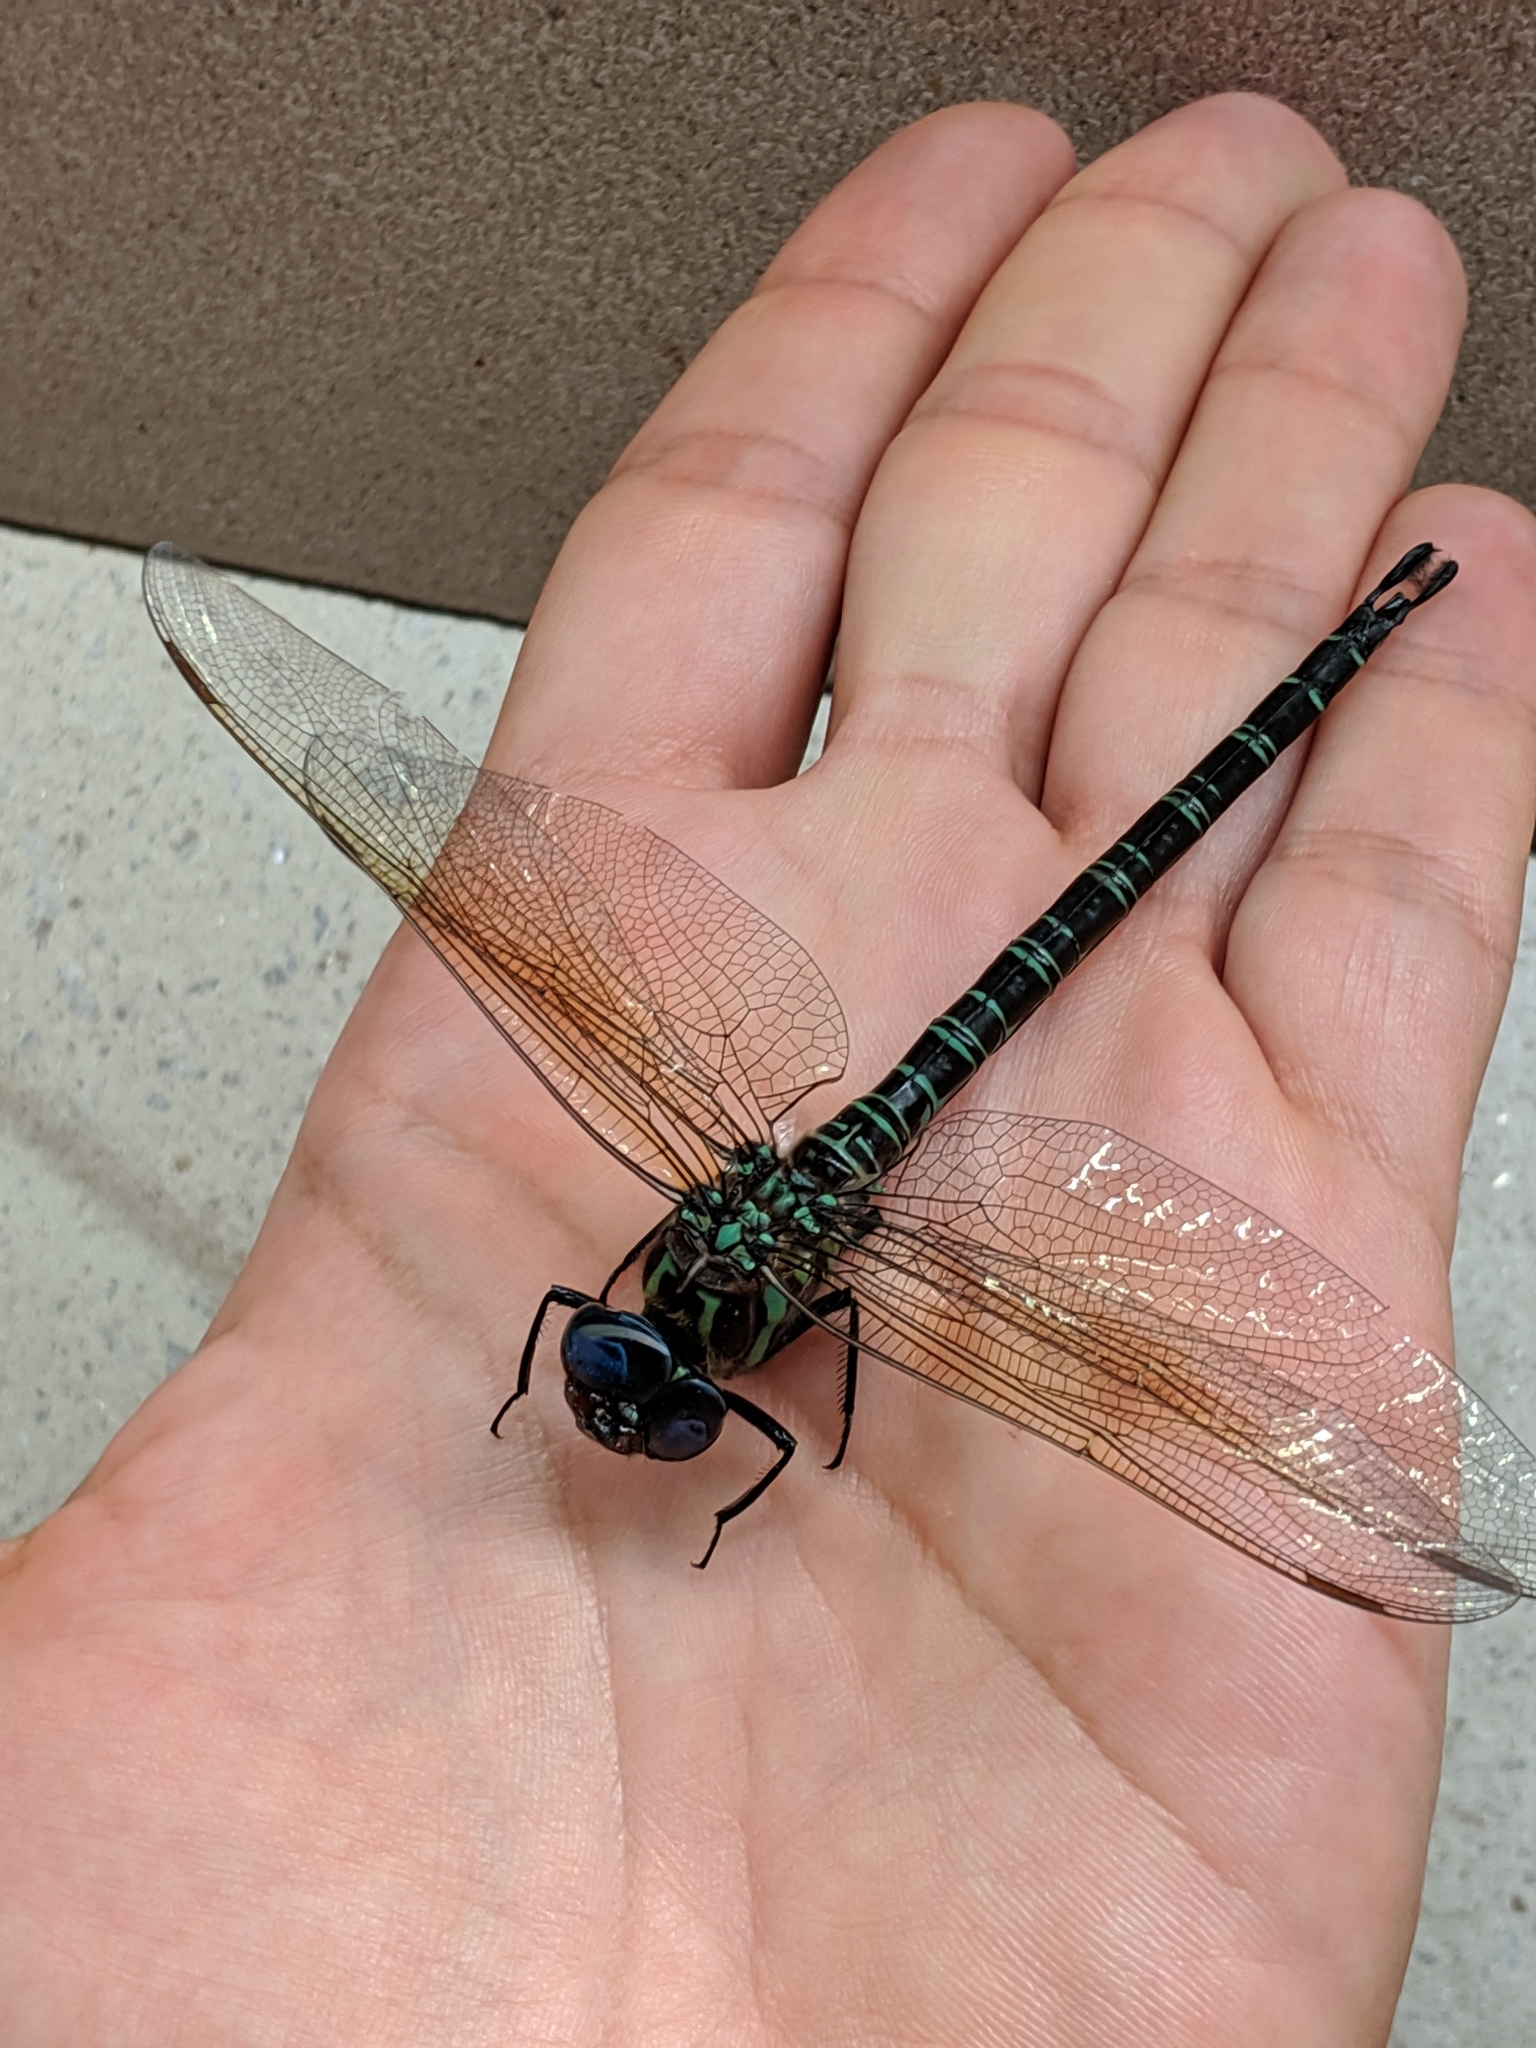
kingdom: Animalia
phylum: Arthropoda
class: Insecta
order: Odonata
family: Aeshnidae
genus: Epiaeschna
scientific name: Epiaeschna heros
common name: Swamp darner
